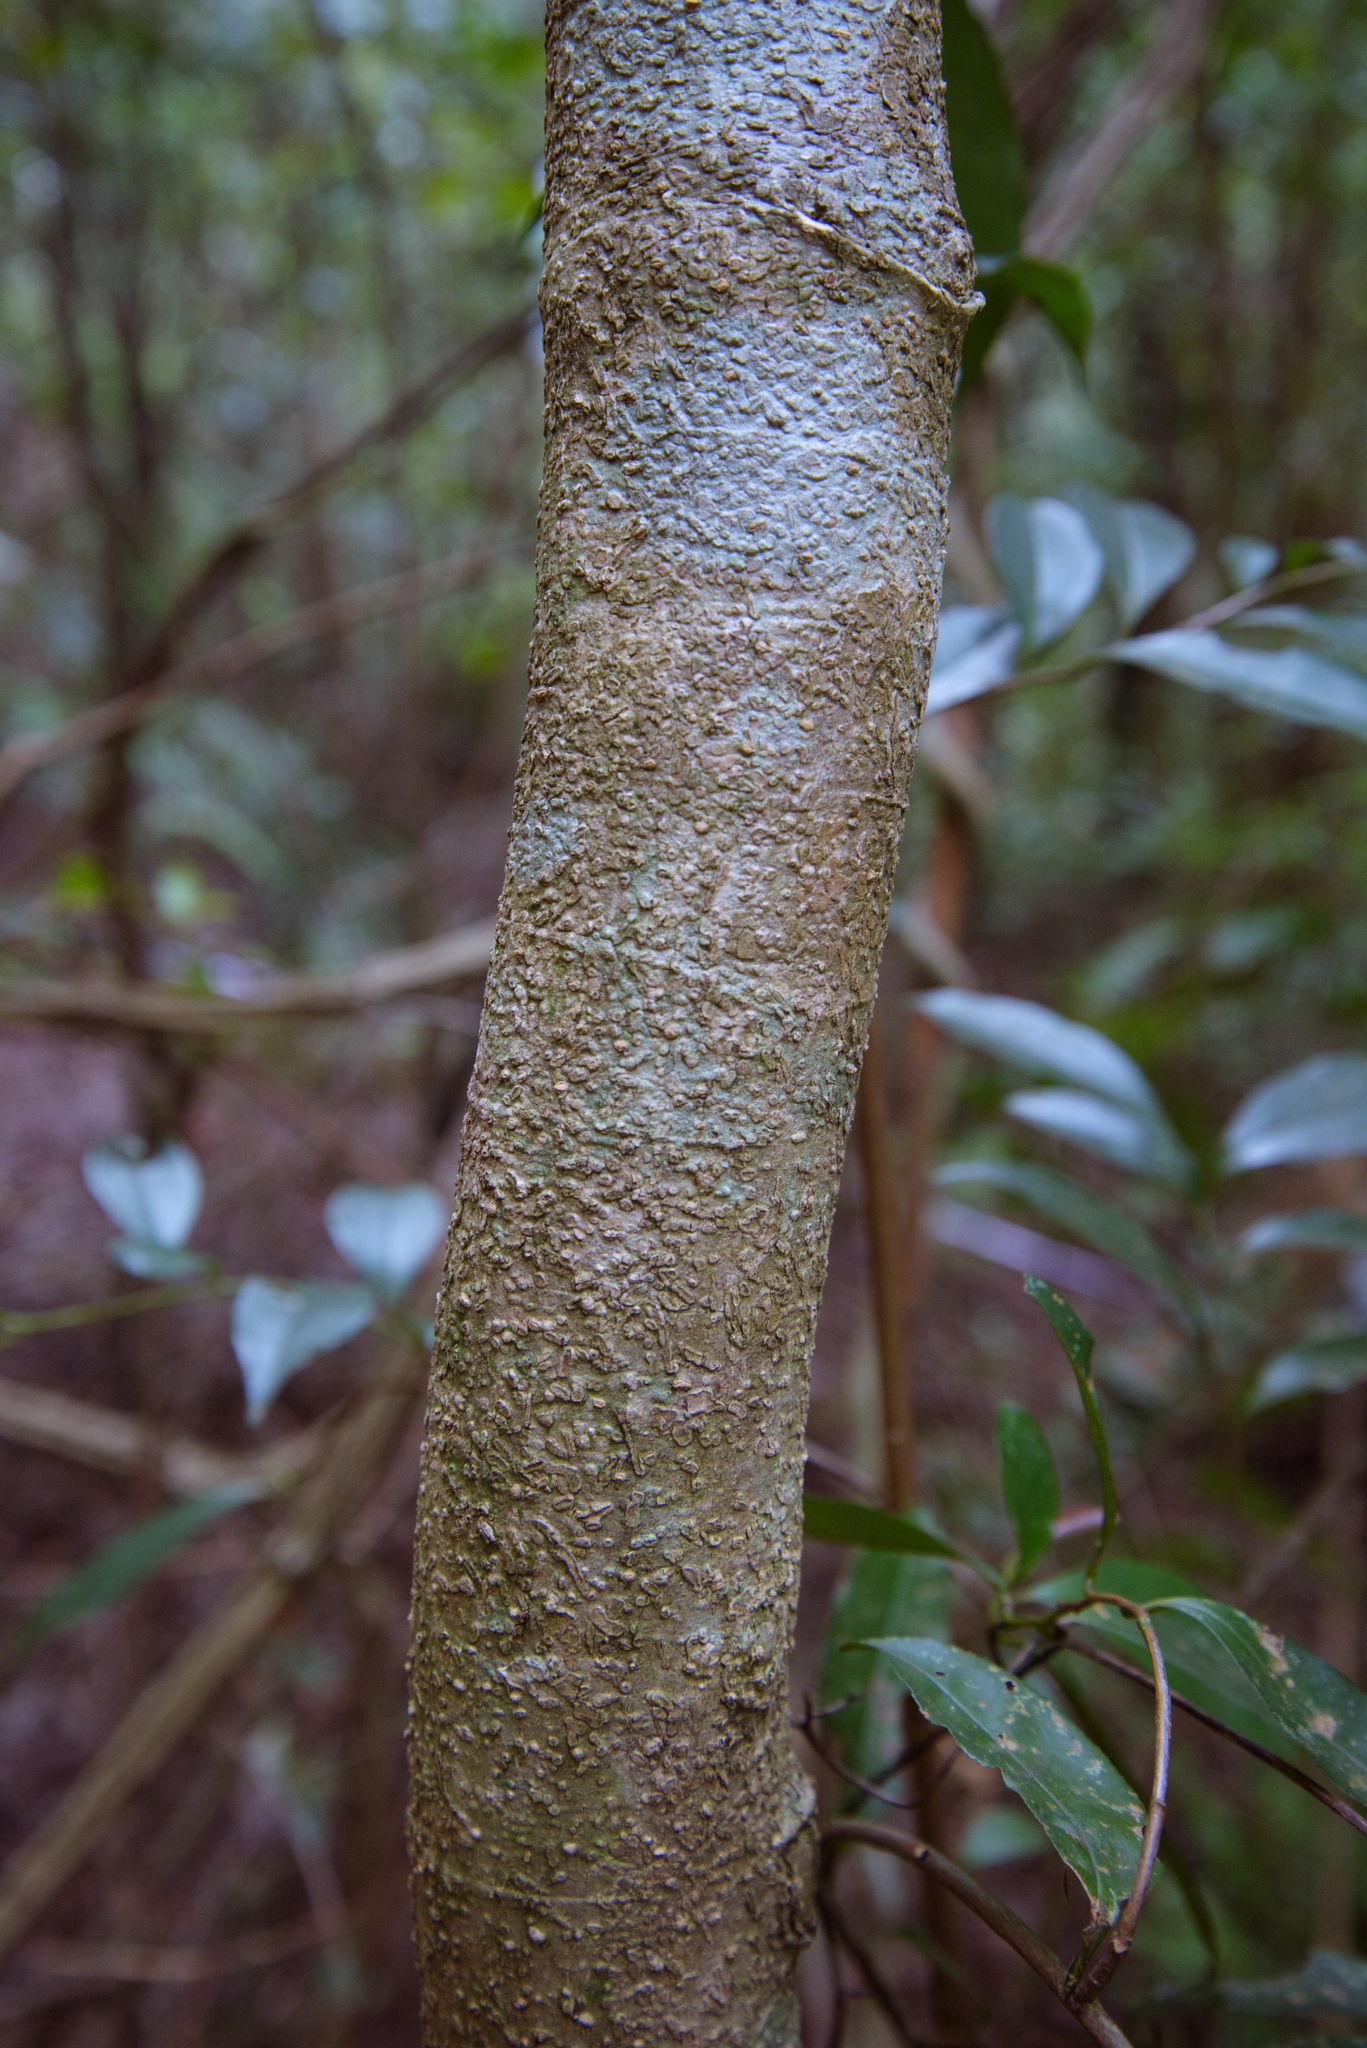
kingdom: Plantae
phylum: Tracheophyta
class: Magnoliopsida
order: Apiales
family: Araliaceae
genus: Heptapleurum
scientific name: Heptapleurum heptaphyllum
